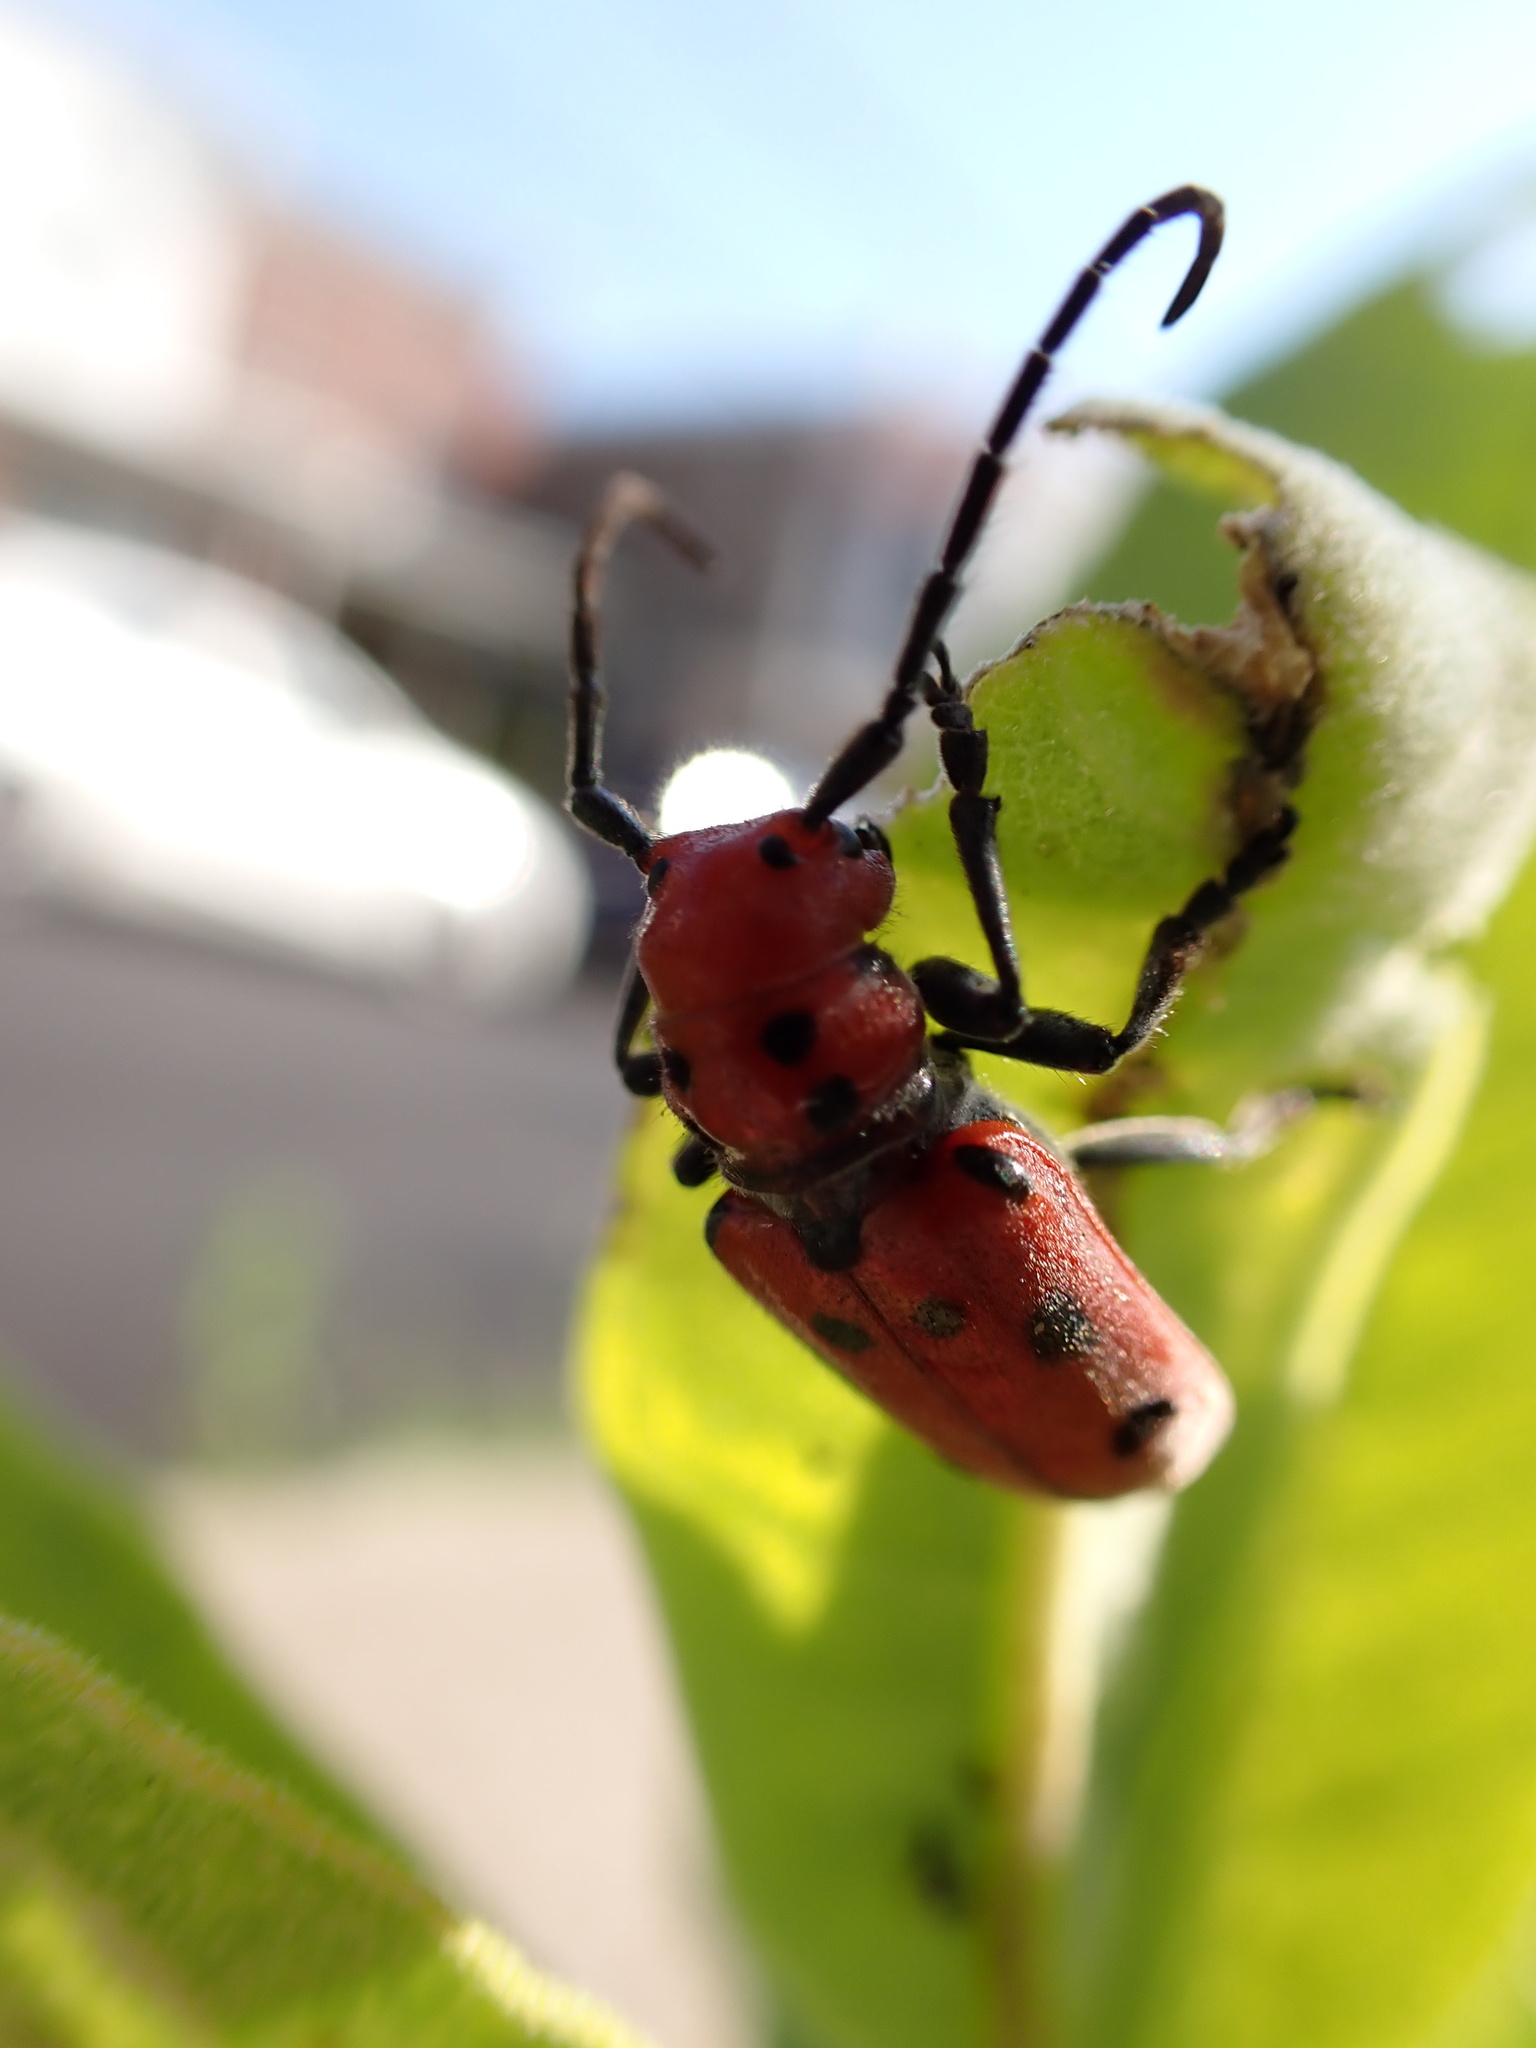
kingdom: Animalia
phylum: Arthropoda
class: Insecta
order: Coleoptera
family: Cerambycidae
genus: Tetraopes
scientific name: Tetraopes tetrophthalmus
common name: Red milkweed beetle
